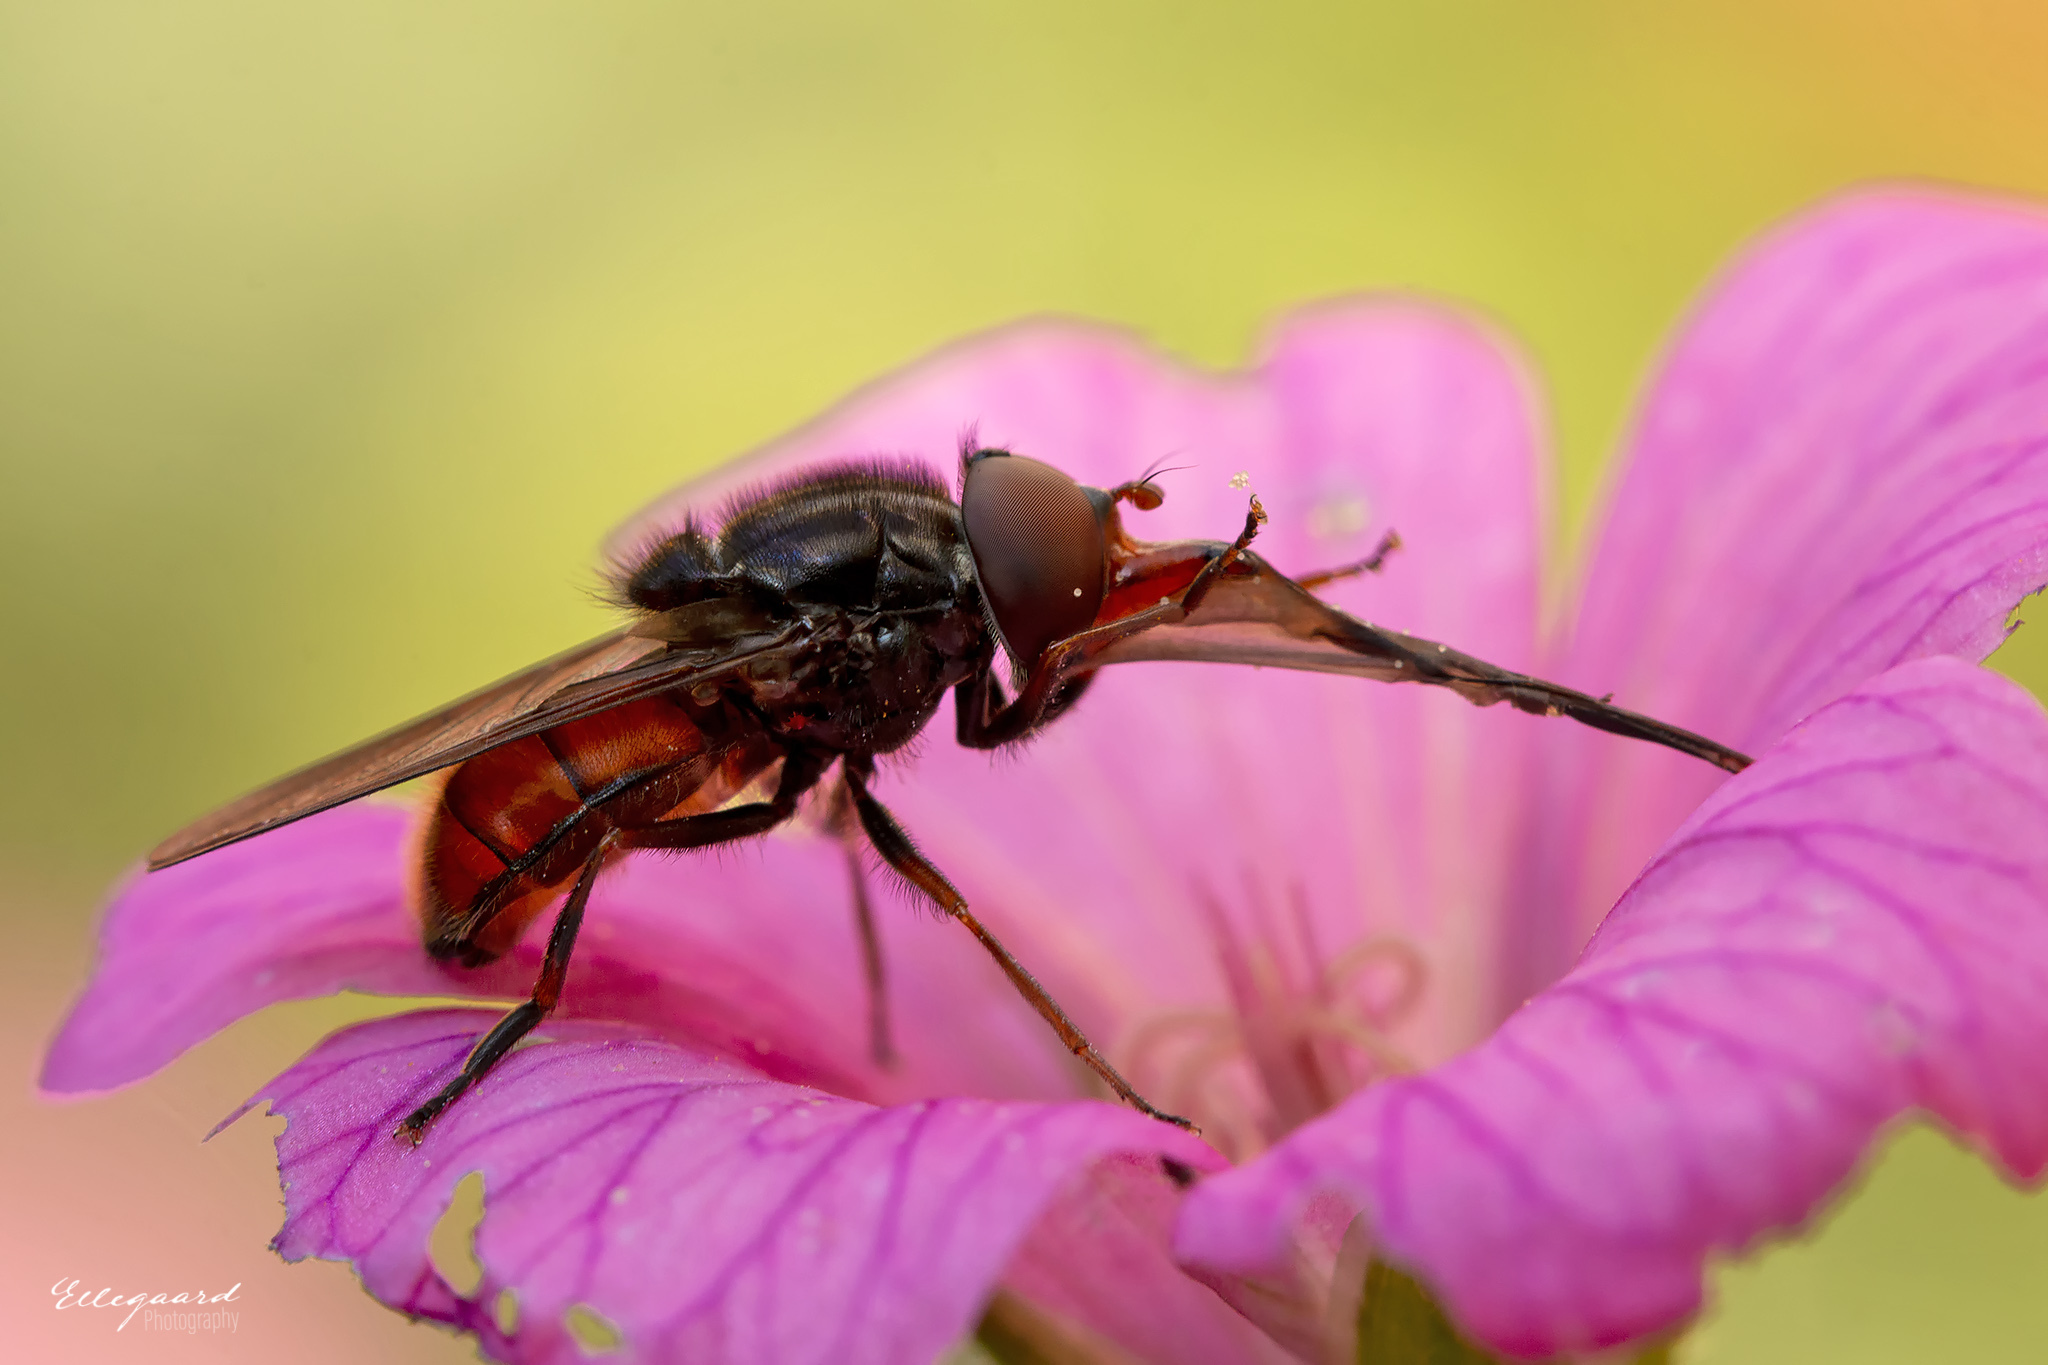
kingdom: Animalia
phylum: Arthropoda
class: Insecta
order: Diptera
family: Syrphidae
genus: Rhingia
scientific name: Rhingia campestris
